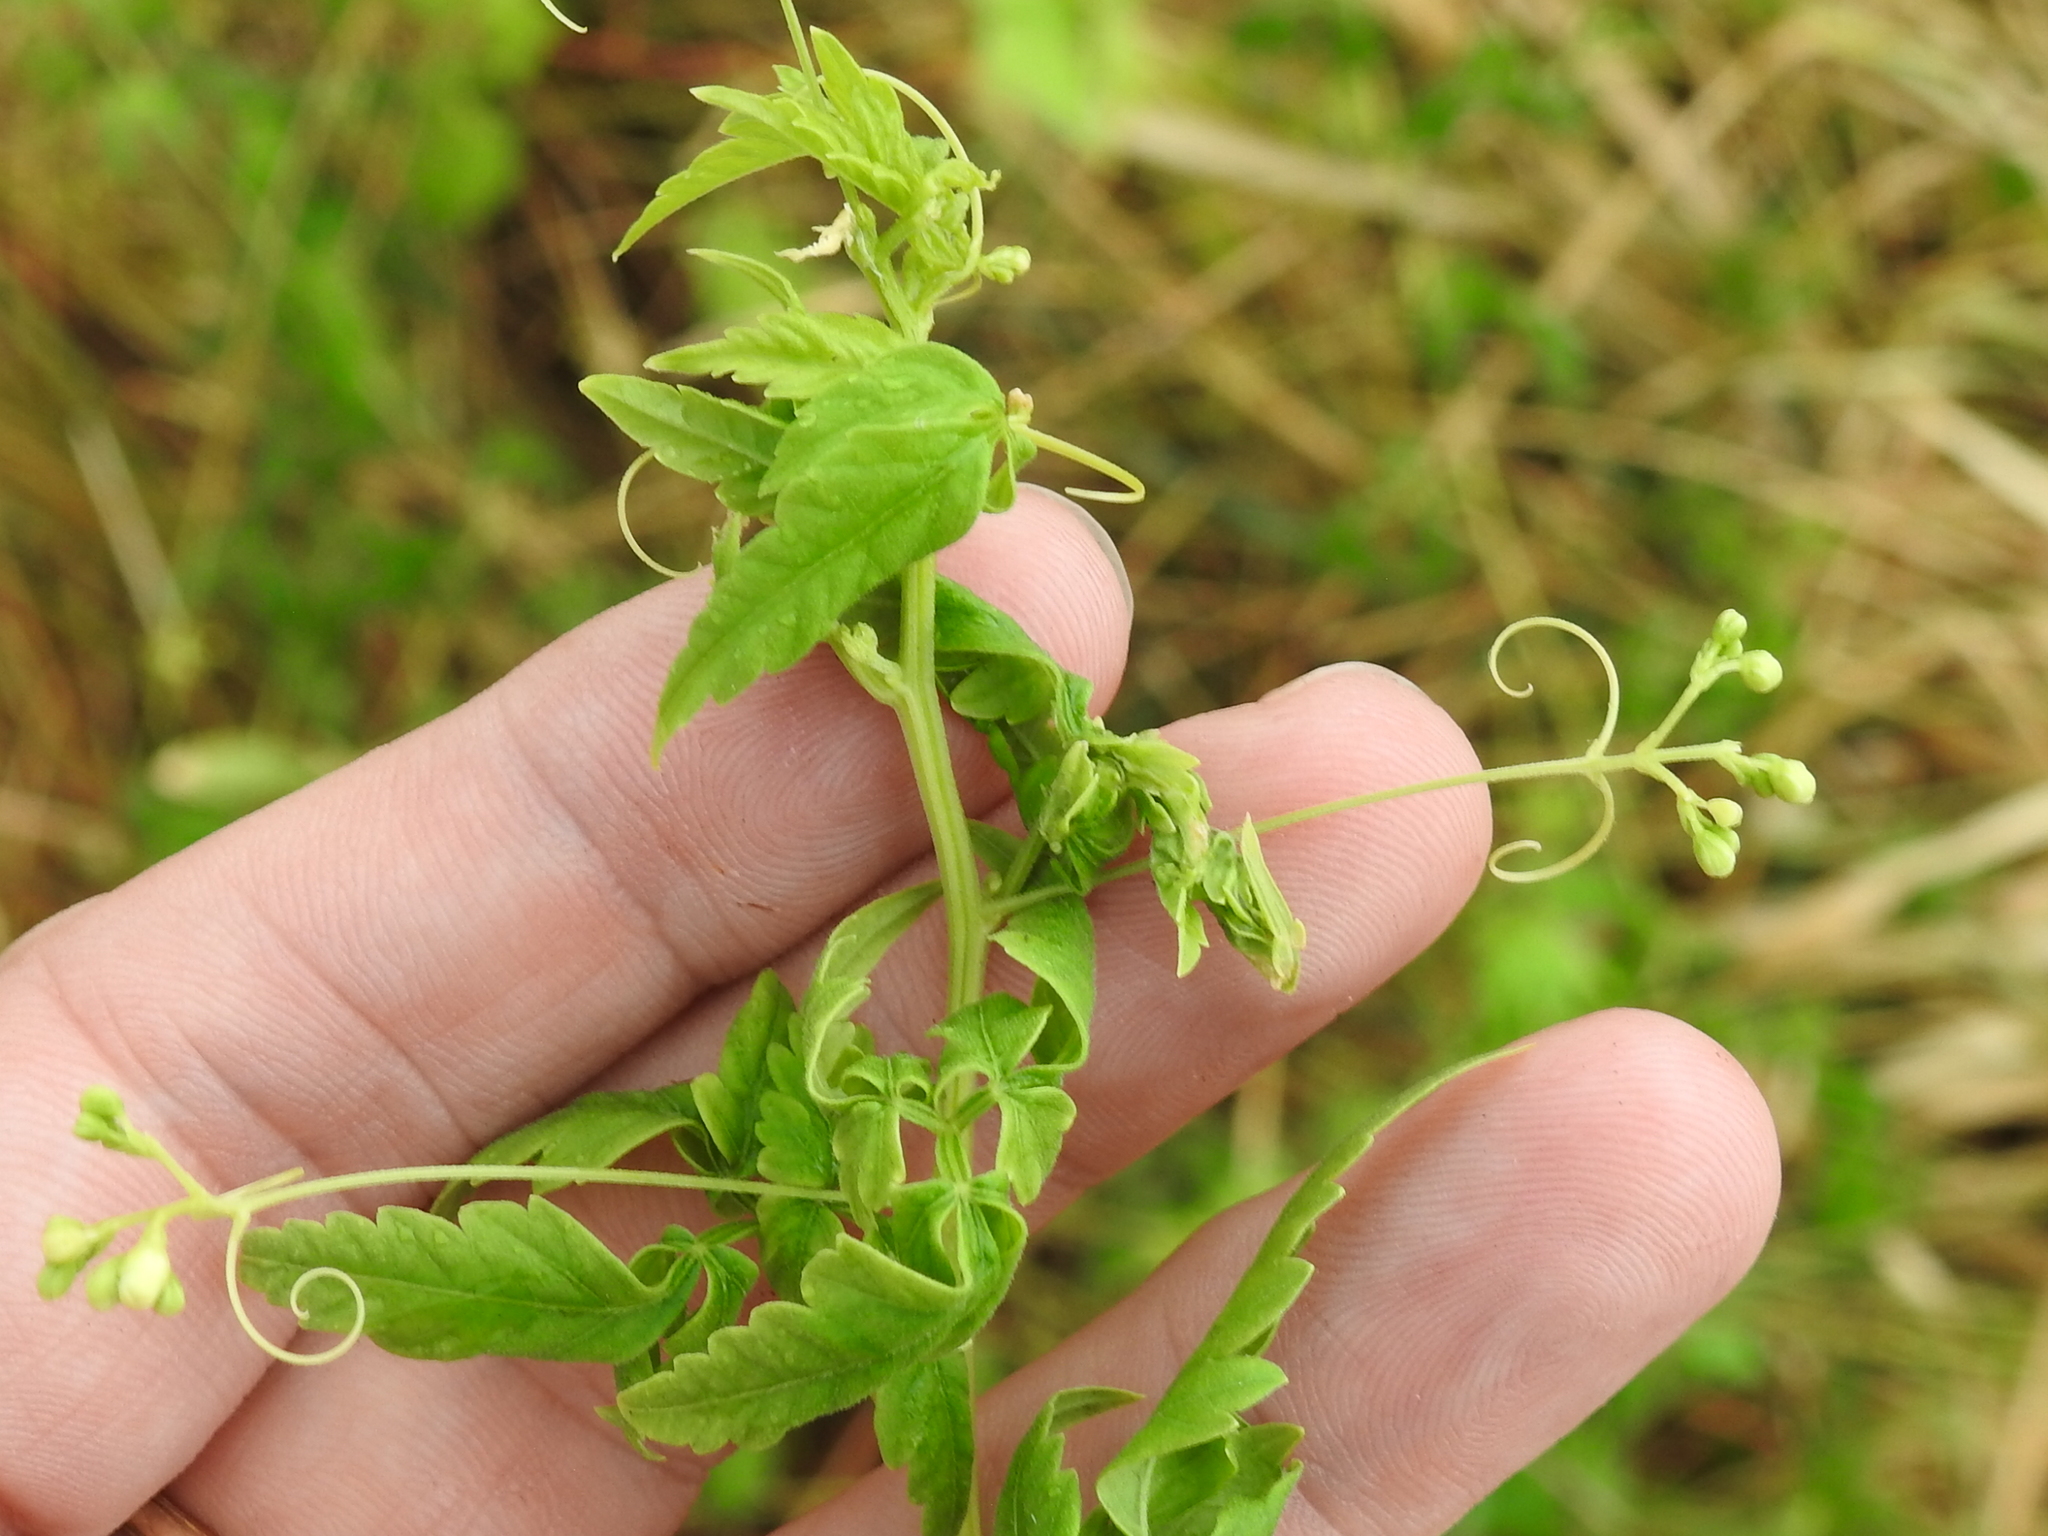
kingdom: Plantae
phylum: Tracheophyta
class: Magnoliopsida
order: Sapindales
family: Sapindaceae
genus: Cardiospermum
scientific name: Cardiospermum halicacabum
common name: Balloon vine
